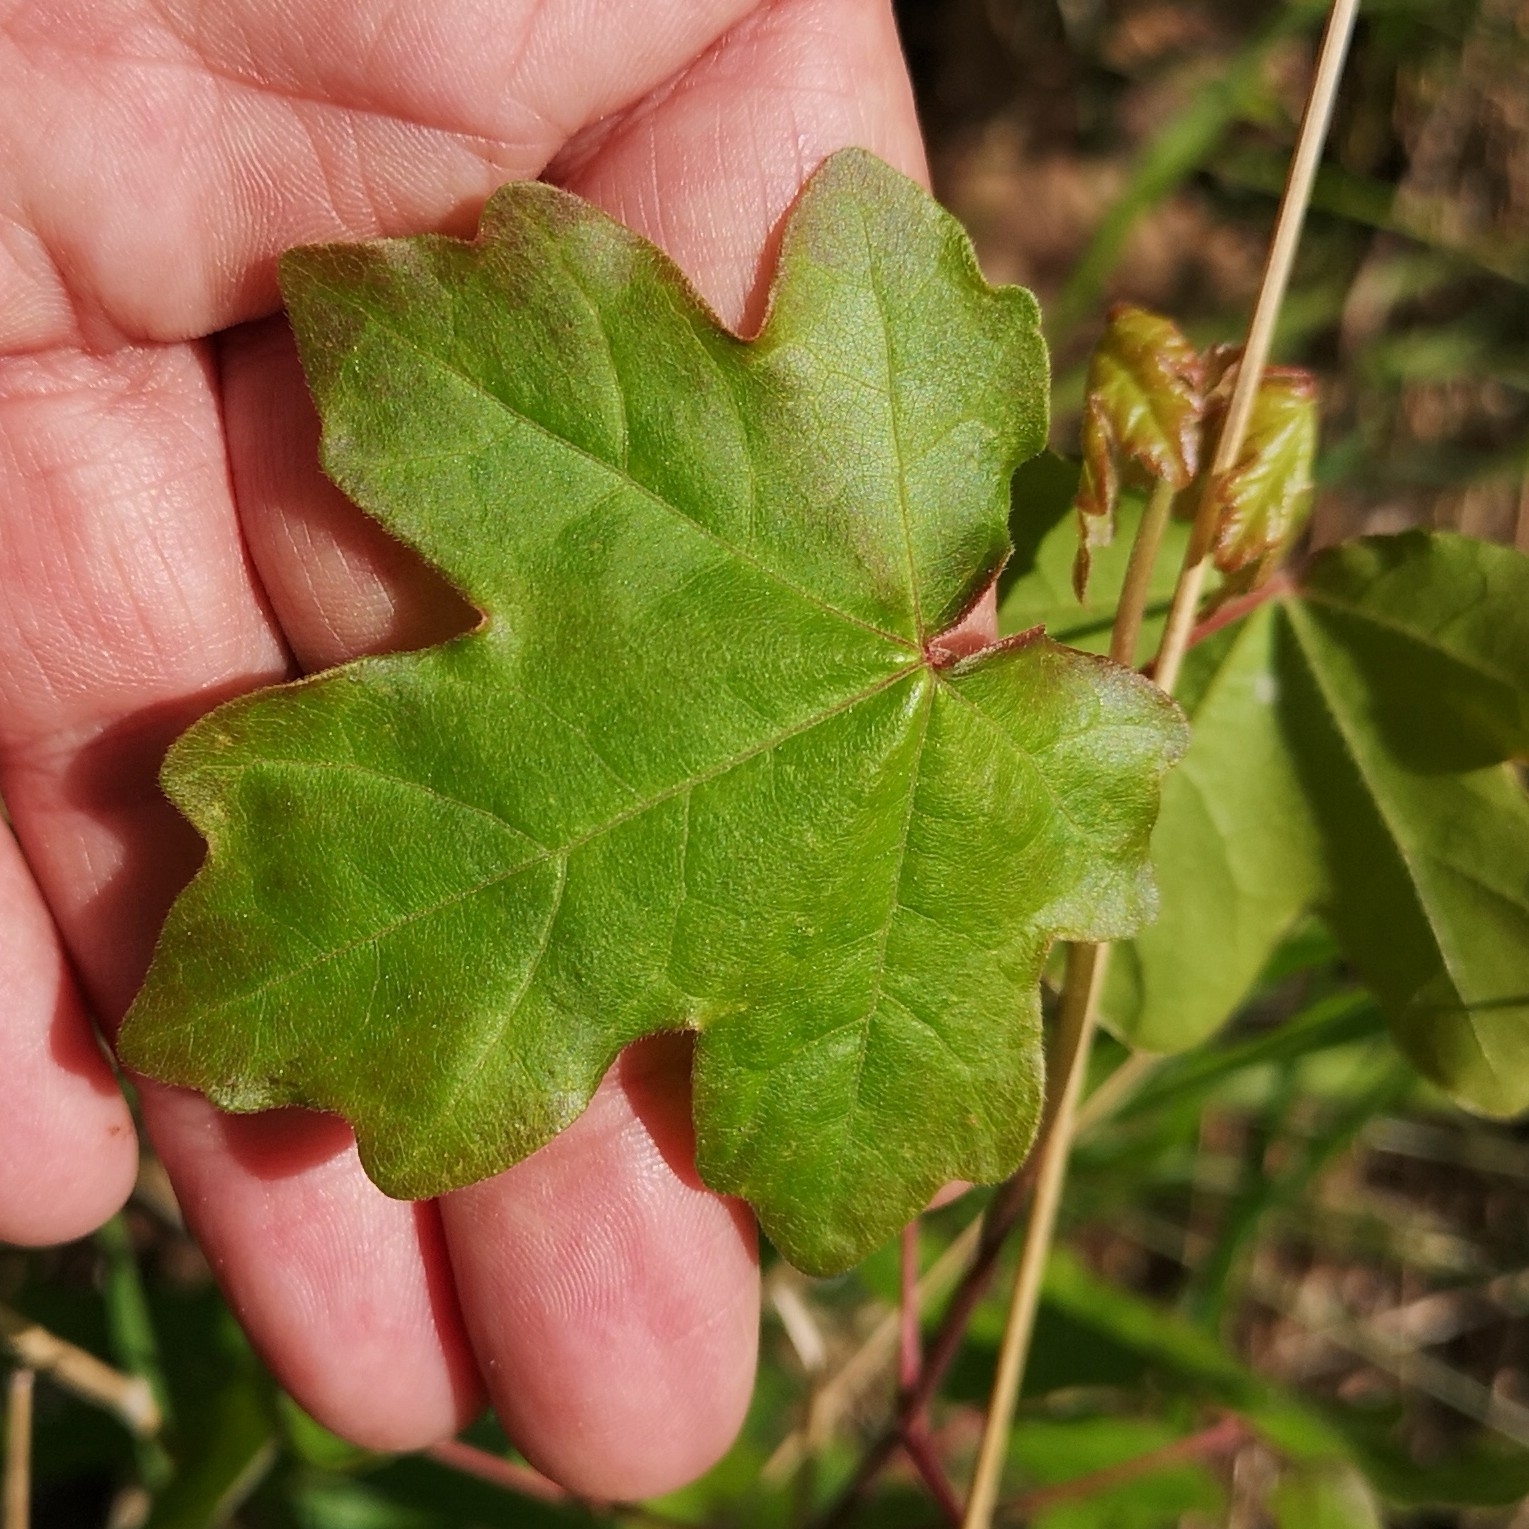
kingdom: Plantae
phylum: Tracheophyta
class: Magnoliopsida
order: Sapindales
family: Sapindaceae
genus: Acer
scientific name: Acer campestre
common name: Field maple
